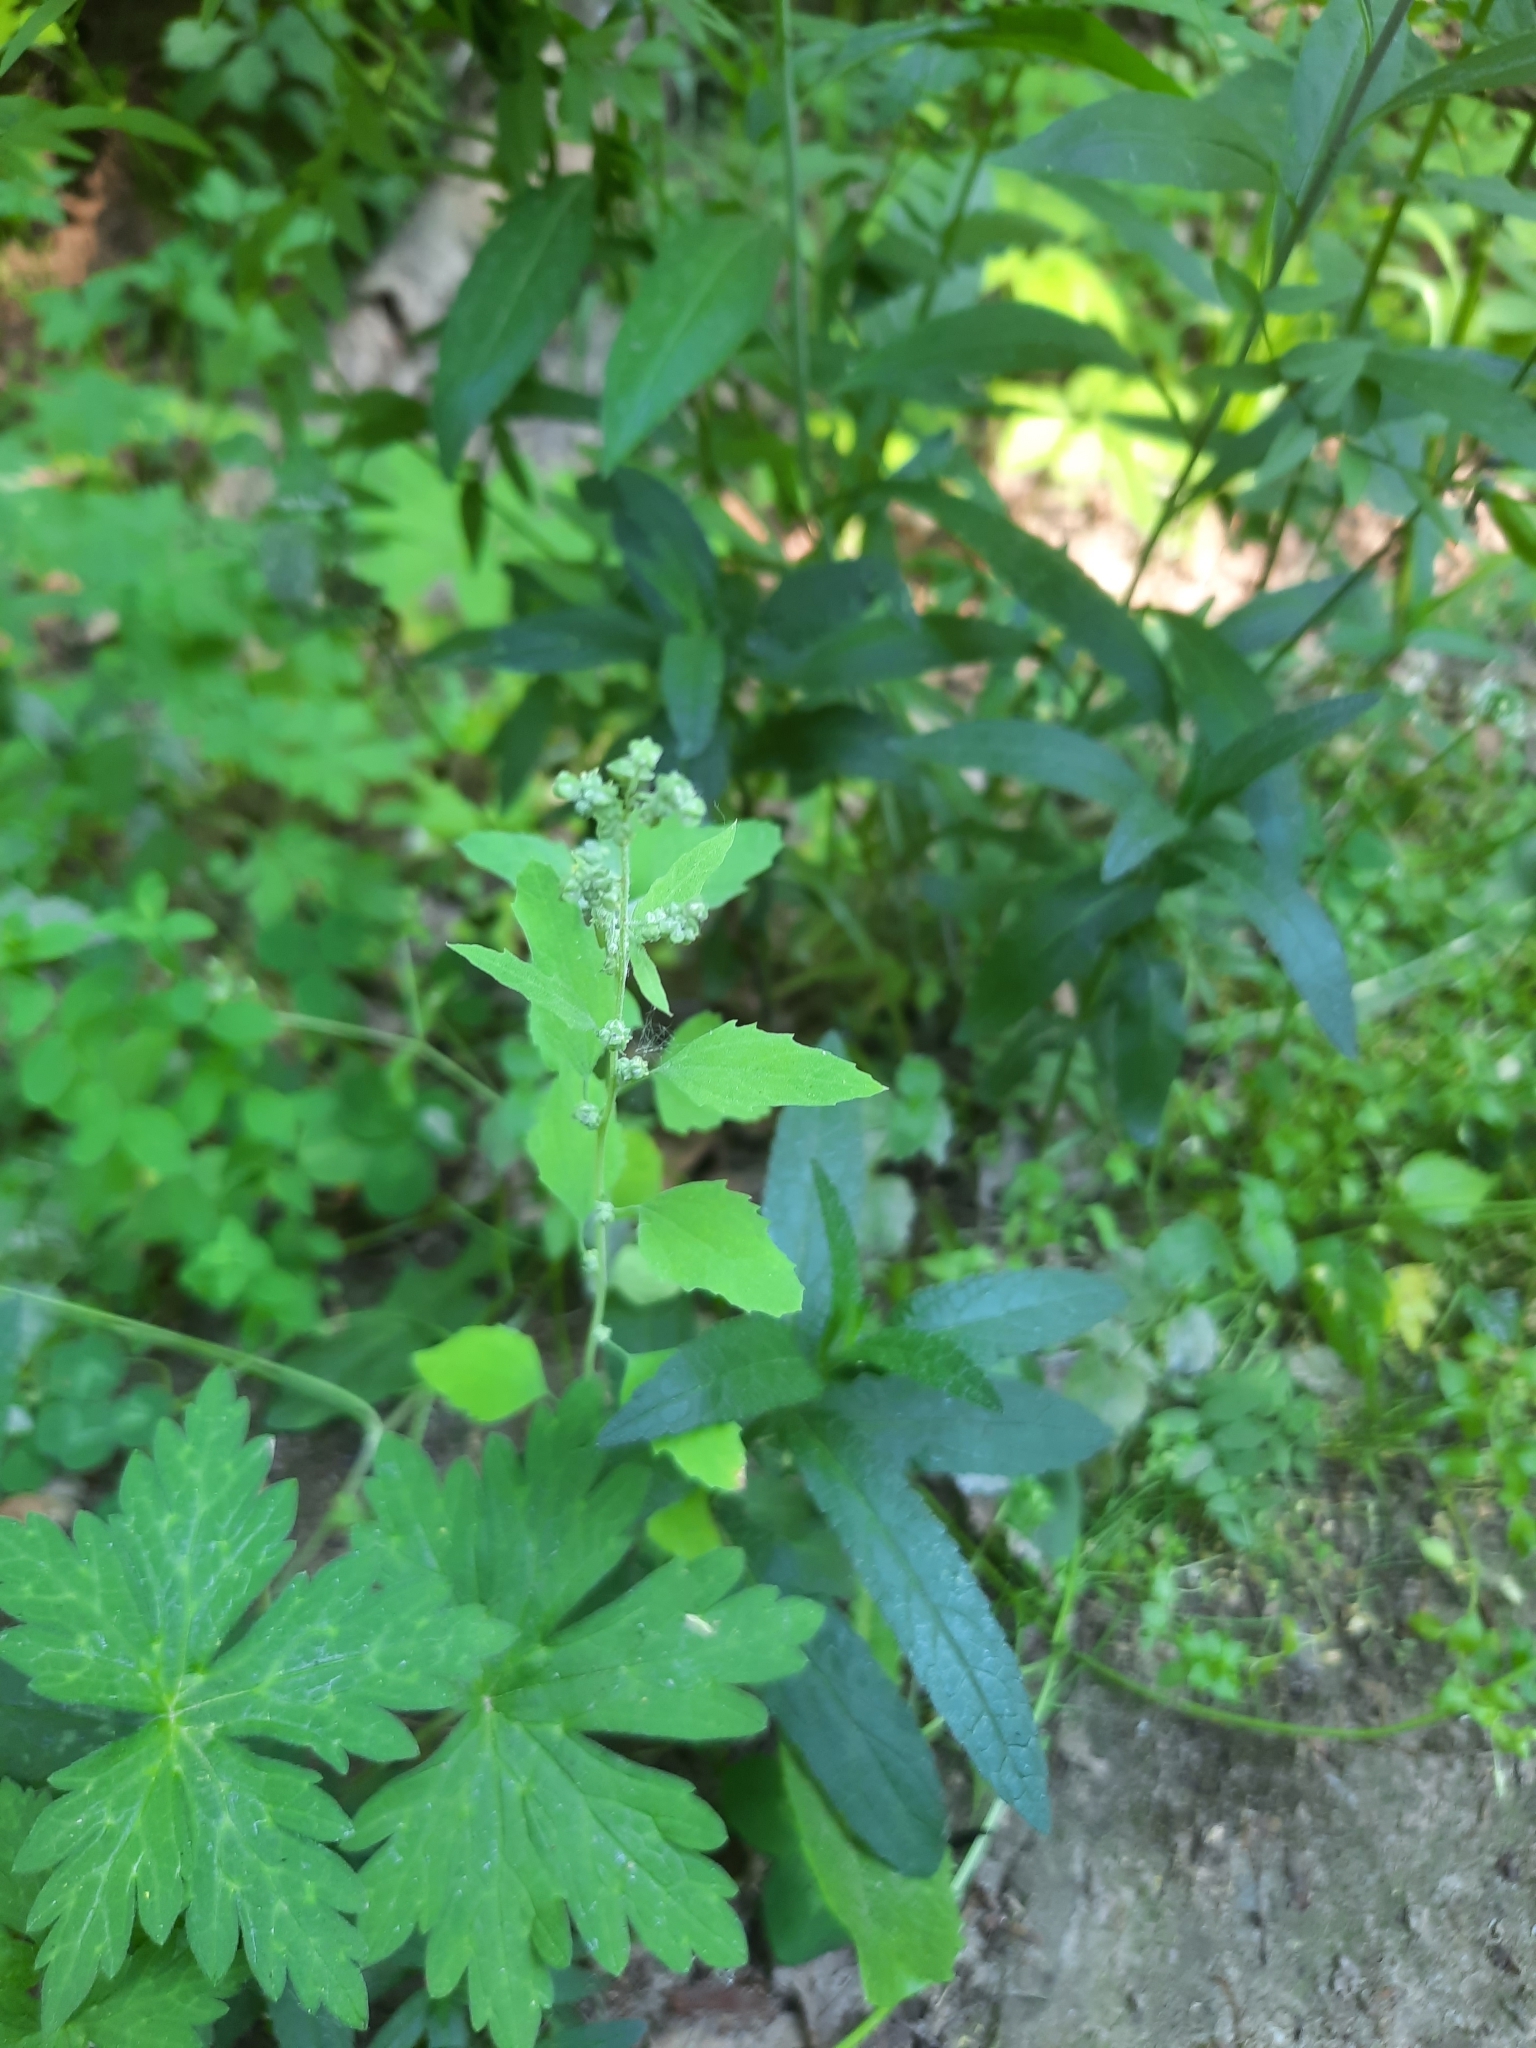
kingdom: Plantae
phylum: Tracheophyta
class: Magnoliopsida
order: Caryophyllales
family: Amaranthaceae
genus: Chenopodium
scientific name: Chenopodium album
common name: Fat-hen
